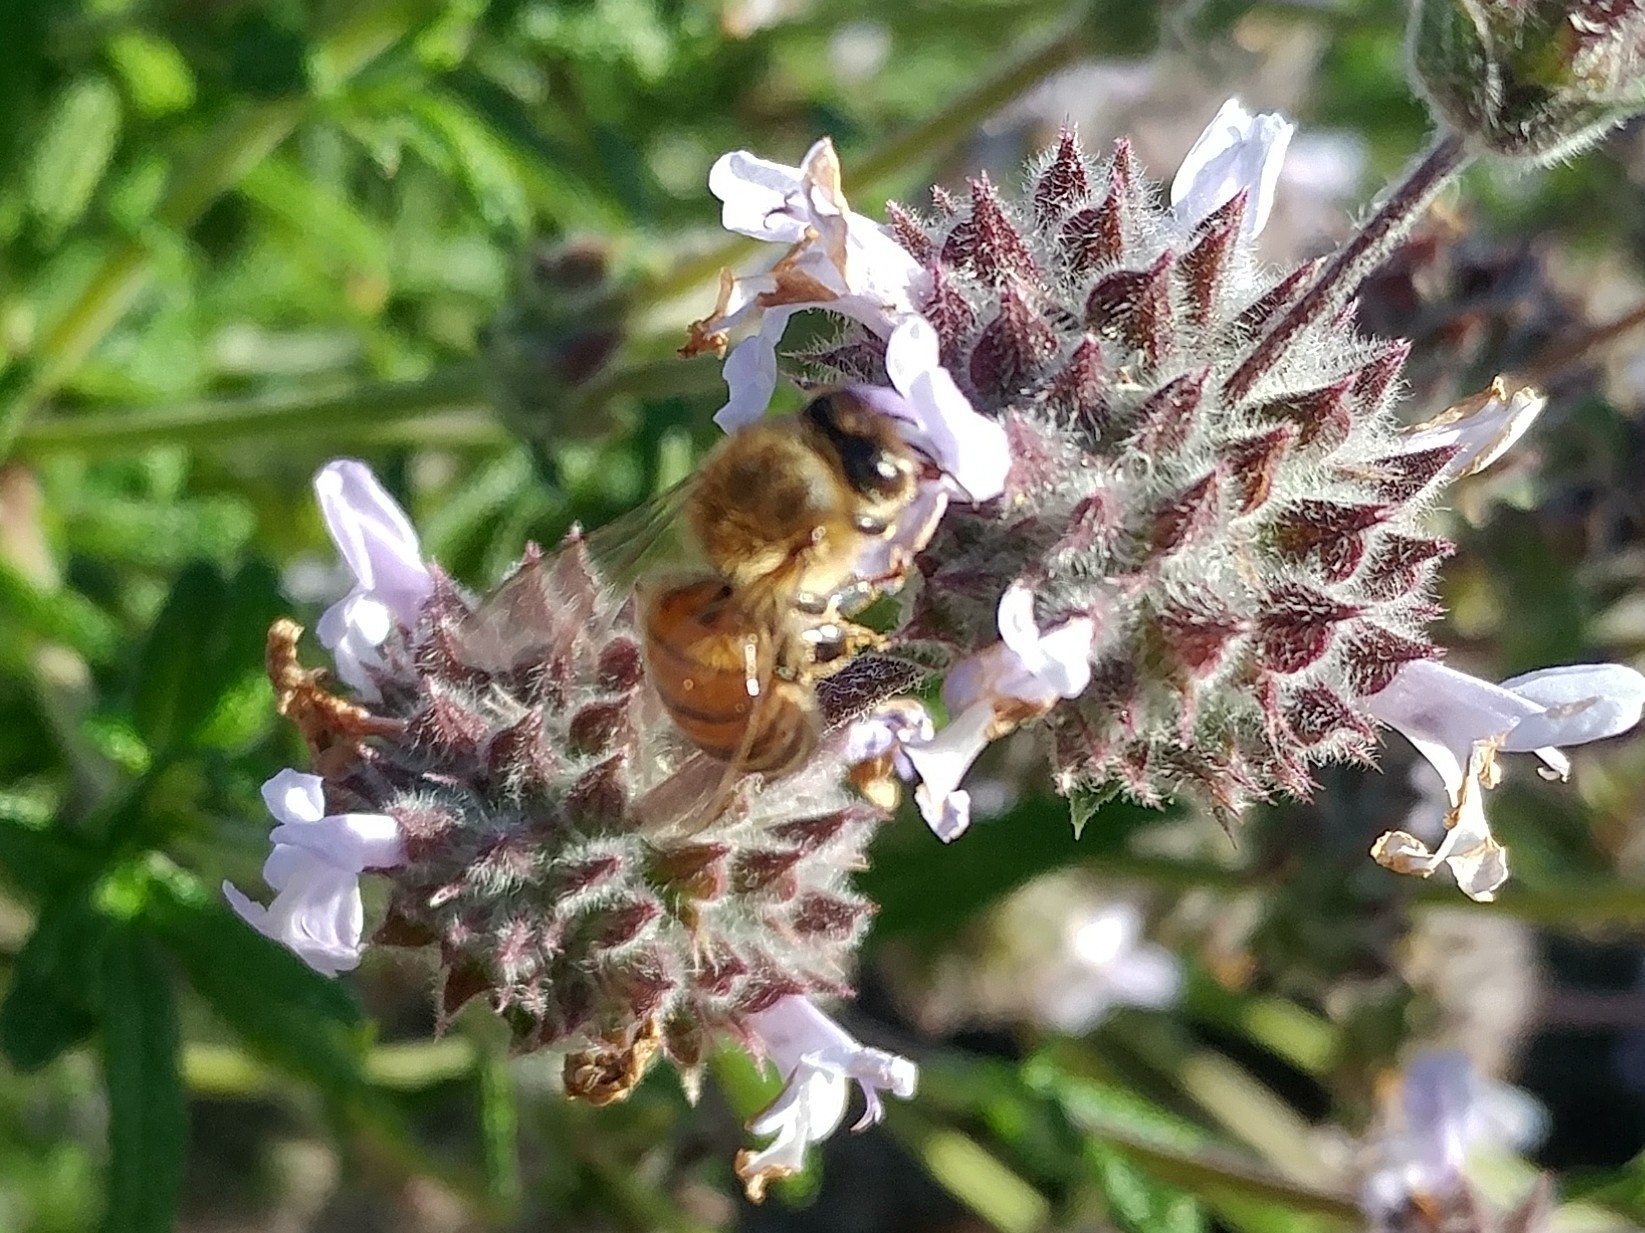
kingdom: Animalia
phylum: Arthropoda
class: Insecta
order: Hymenoptera
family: Apidae
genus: Apis
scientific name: Apis mellifera
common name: Honey bee
